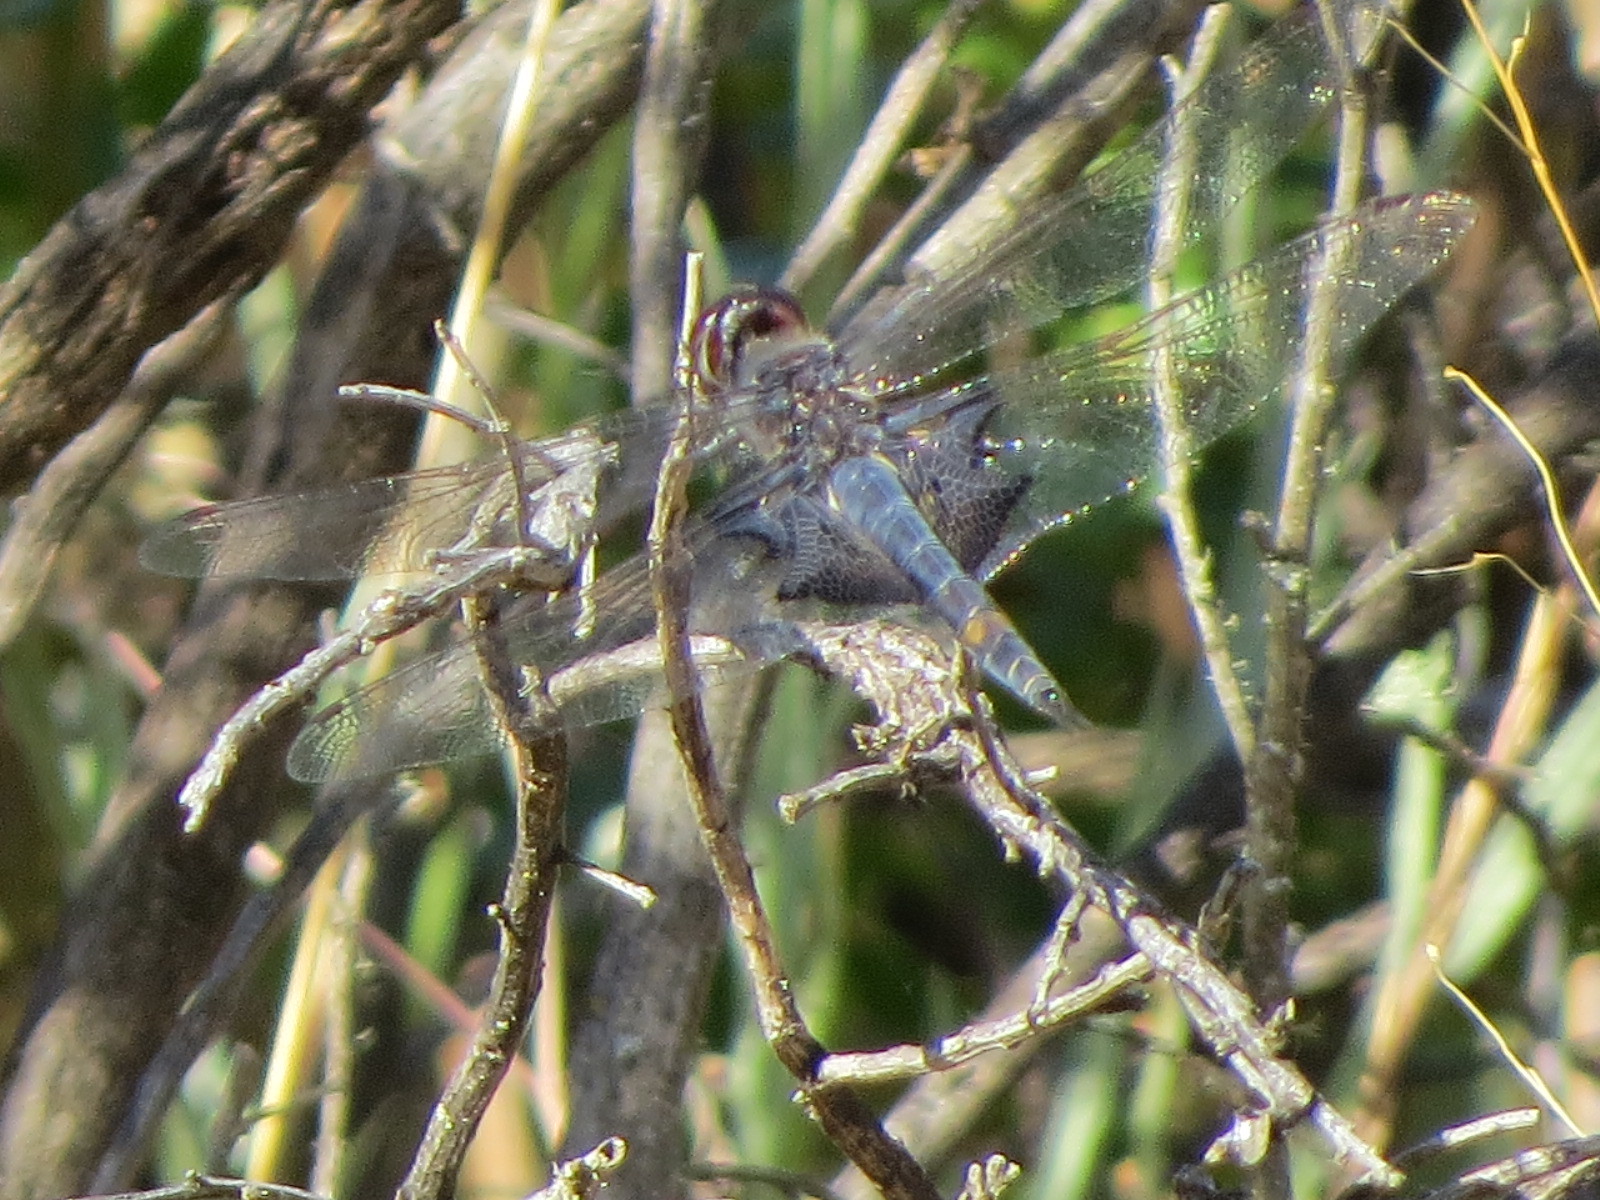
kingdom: Animalia
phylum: Arthropoda
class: Insecta
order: Odonata
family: Libellulidae
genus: Tramea
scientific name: Tramea lacerata
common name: Black saddlebags
